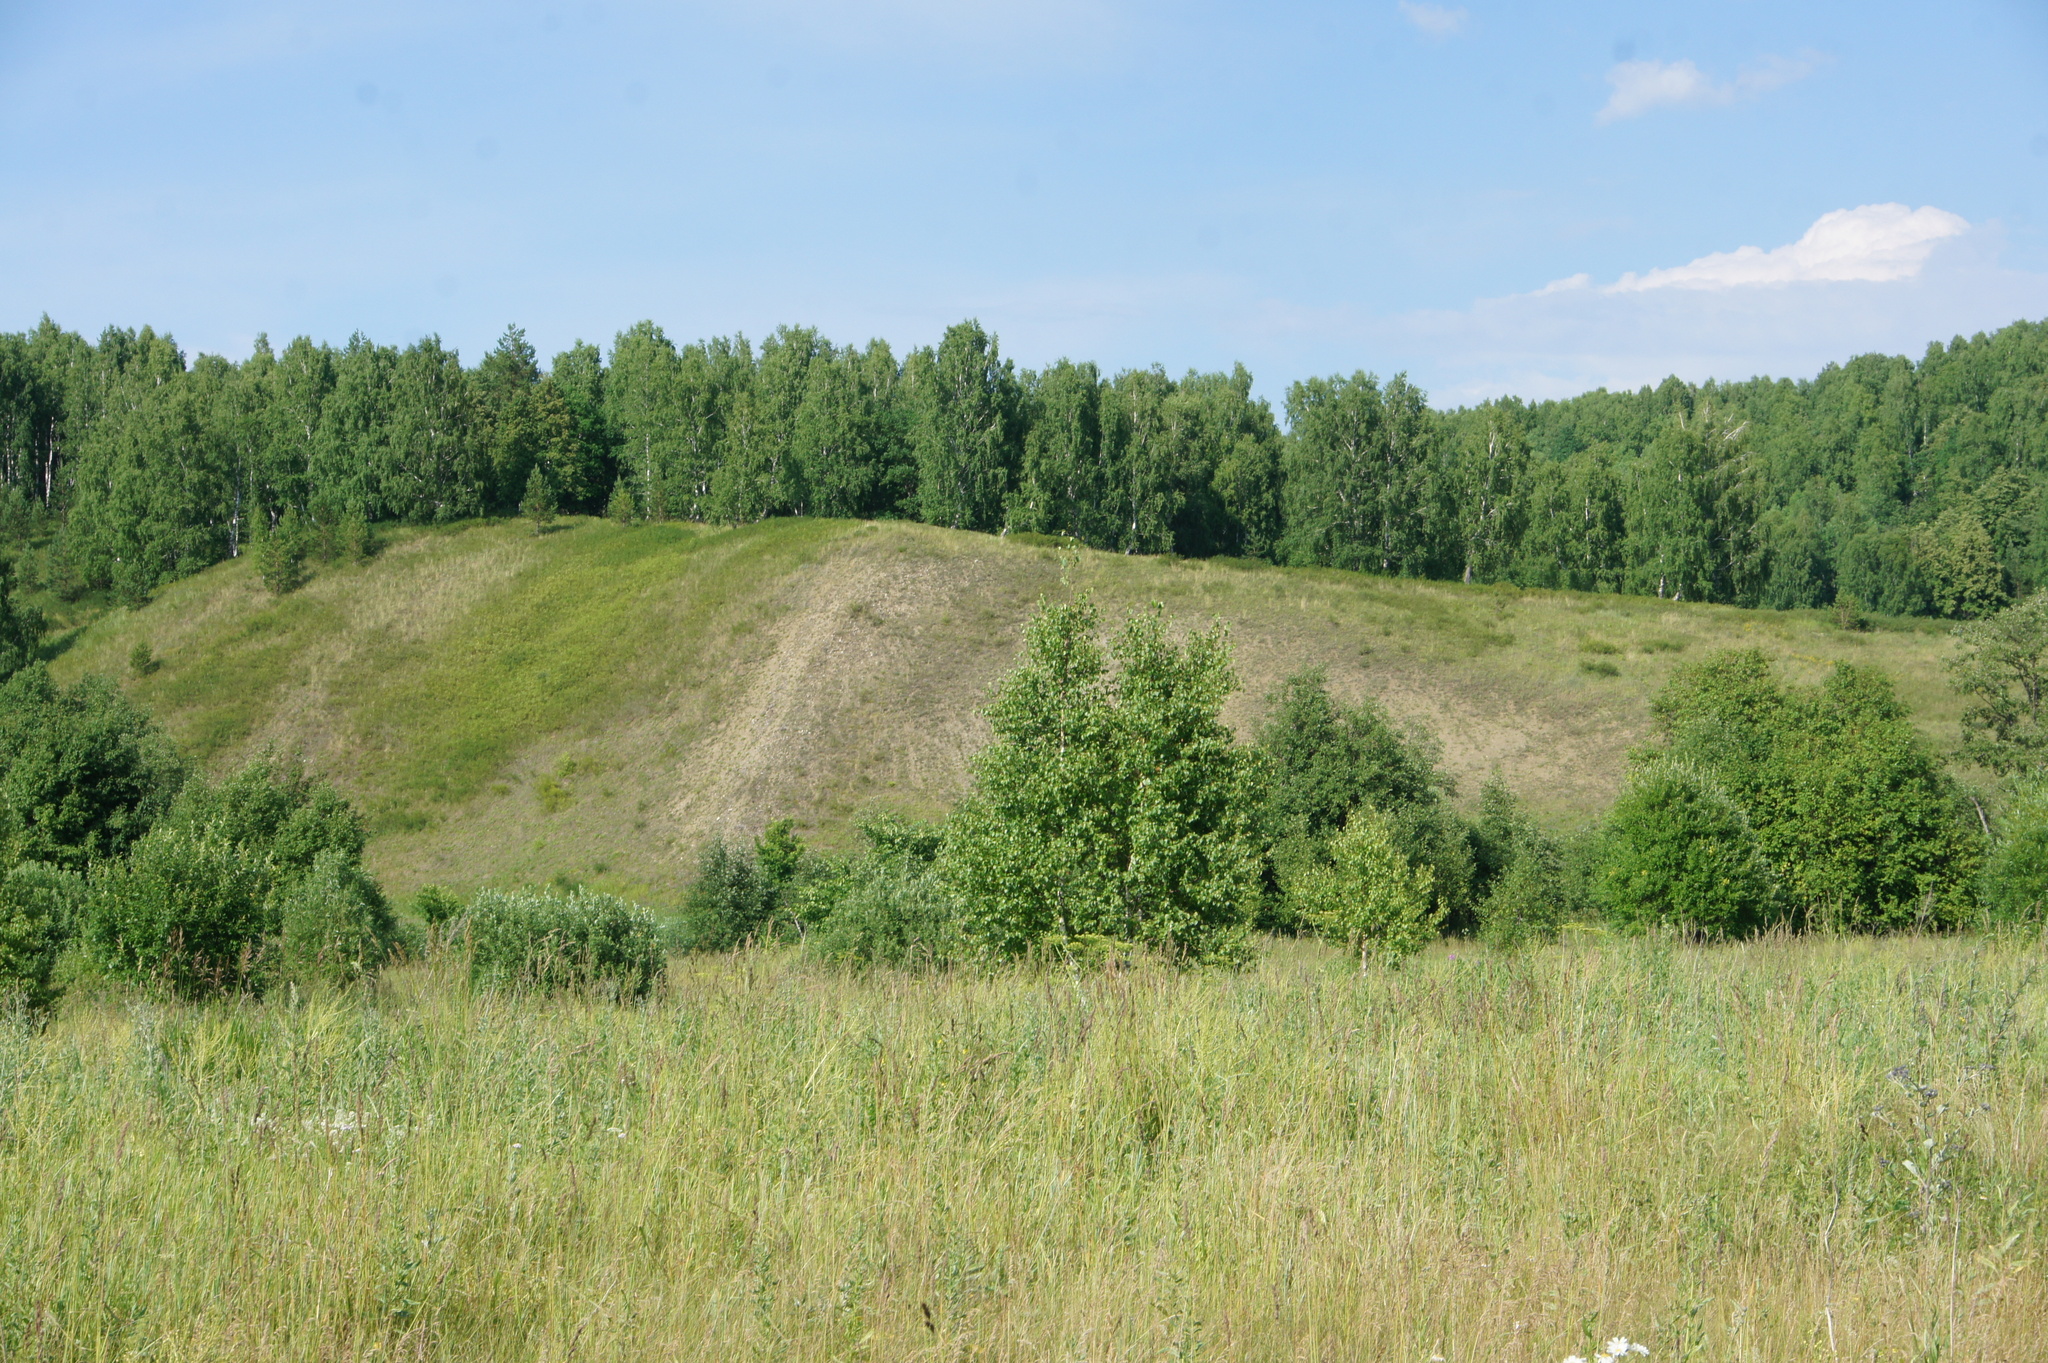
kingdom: Plantae
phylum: Tracheophyta
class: Magnoliopsida
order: Fagales
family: Betulaceae
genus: Betula
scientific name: Betula pendula
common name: Silver birch
